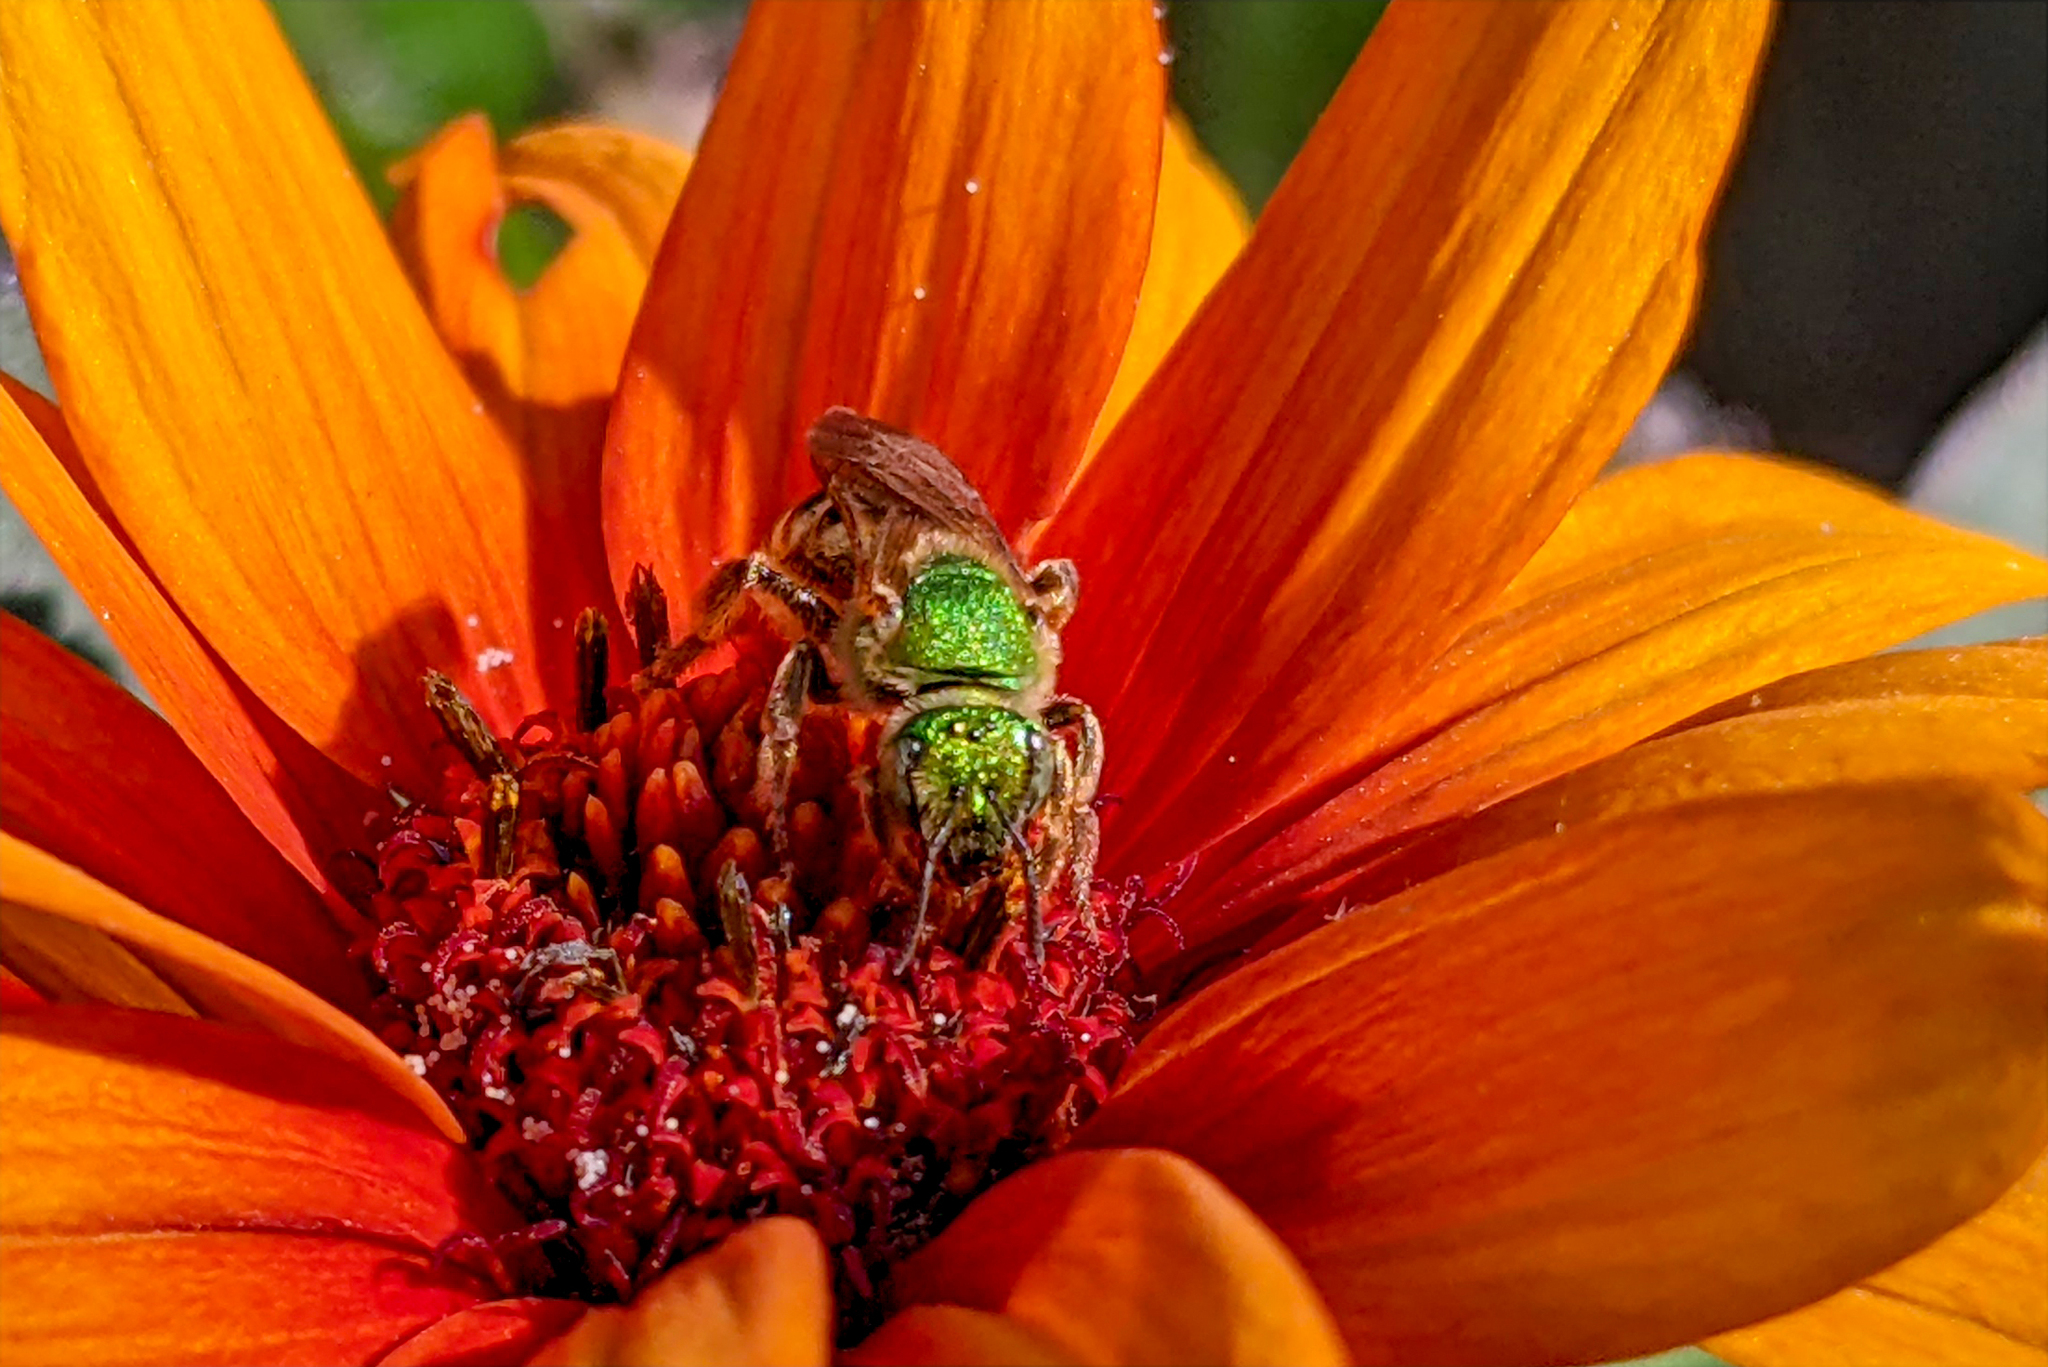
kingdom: Animalia
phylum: Arthropoda
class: Insecta
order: Hymenoptera
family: Halictidae
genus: Agapostemon
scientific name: Agapostemon virescens
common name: Bicolored striped sweat bee
